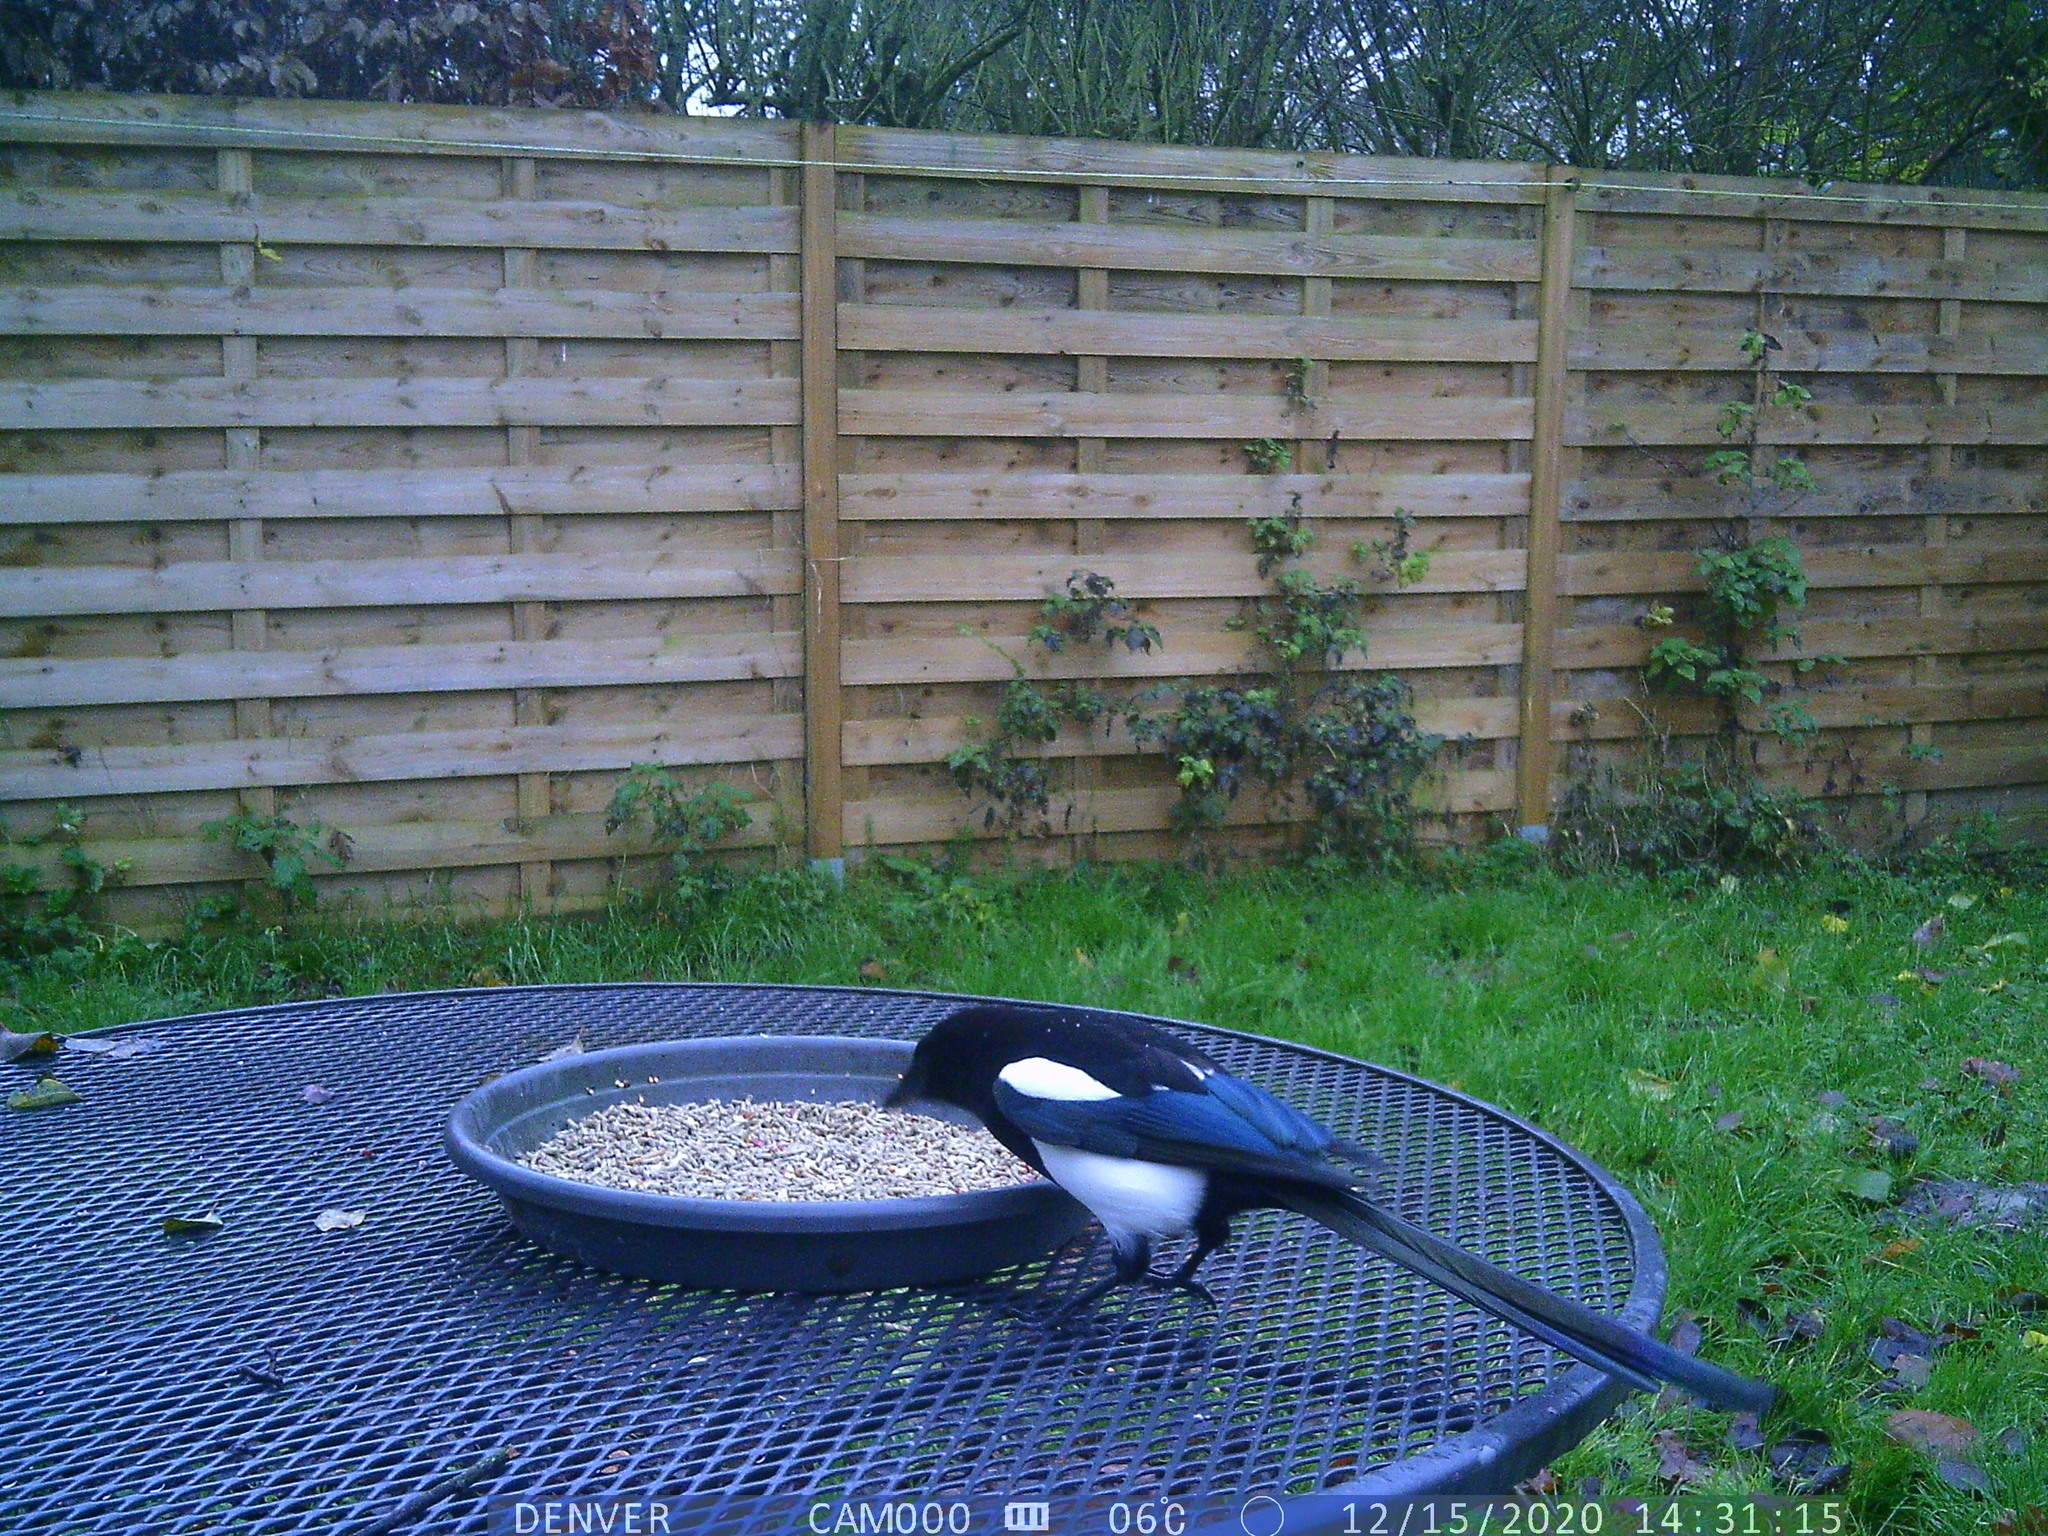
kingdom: Animalia
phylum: Chordata
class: Aves
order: Passeriformes
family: Corvidae
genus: Pica
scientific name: Pica pica
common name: Eurasian magpie
